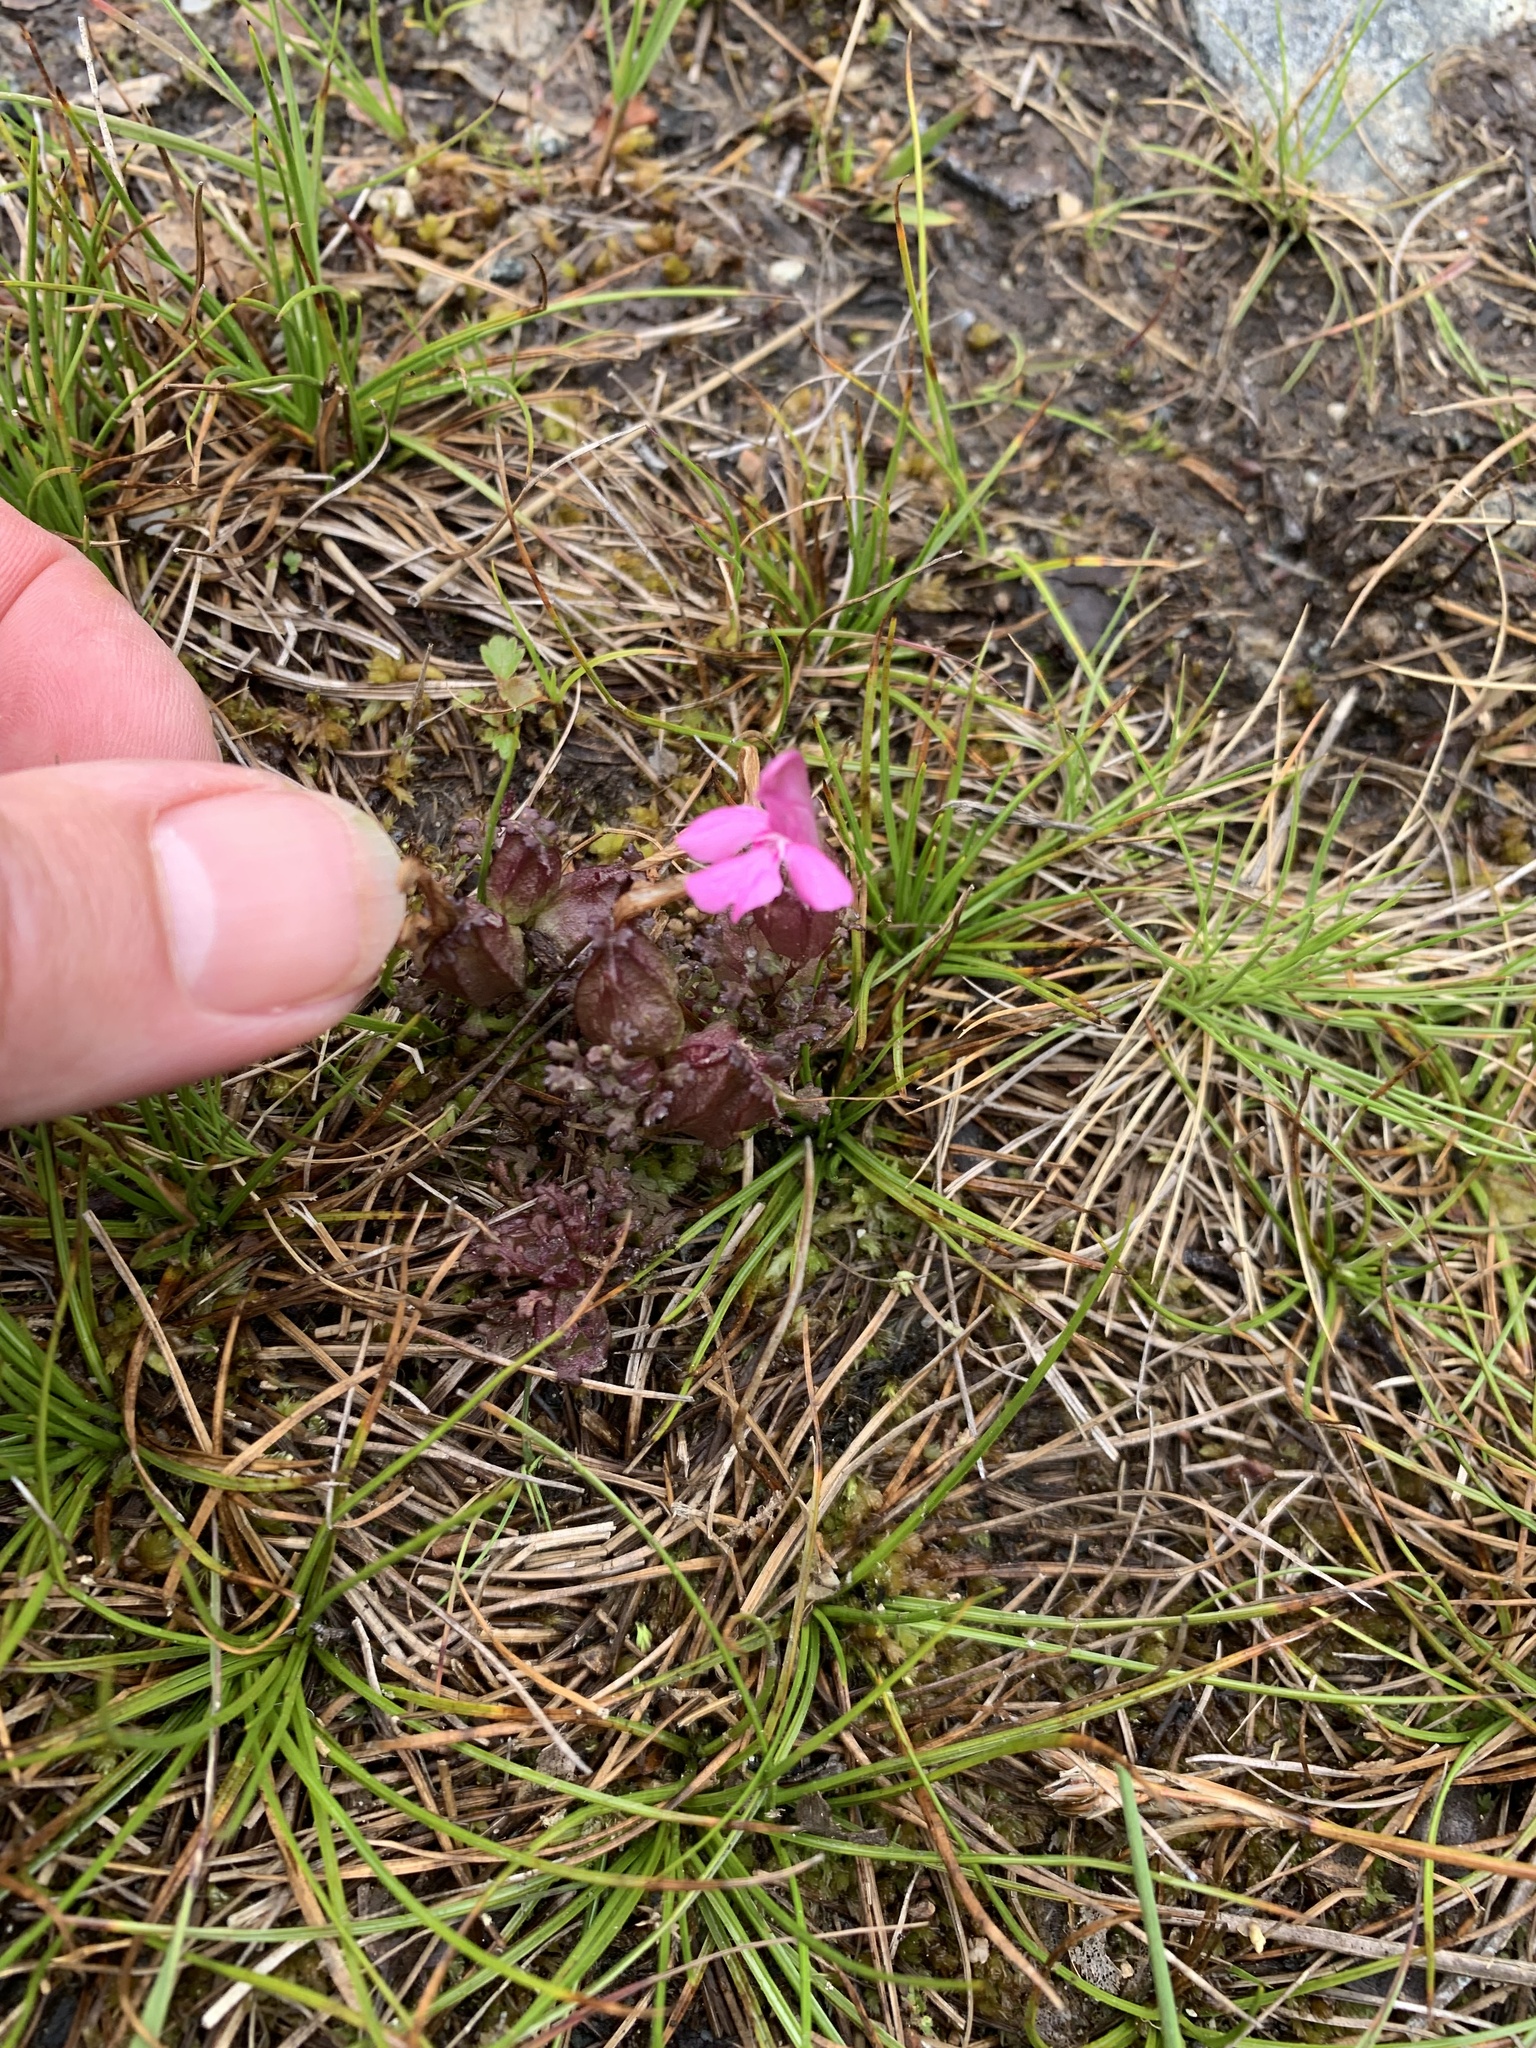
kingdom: Plantae
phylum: Tracheophyta
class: Magnoliopsida
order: Lamiales
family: Orobanchaceae
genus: Pedicularis
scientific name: Pedicularis sylvatica
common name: Lousewort
